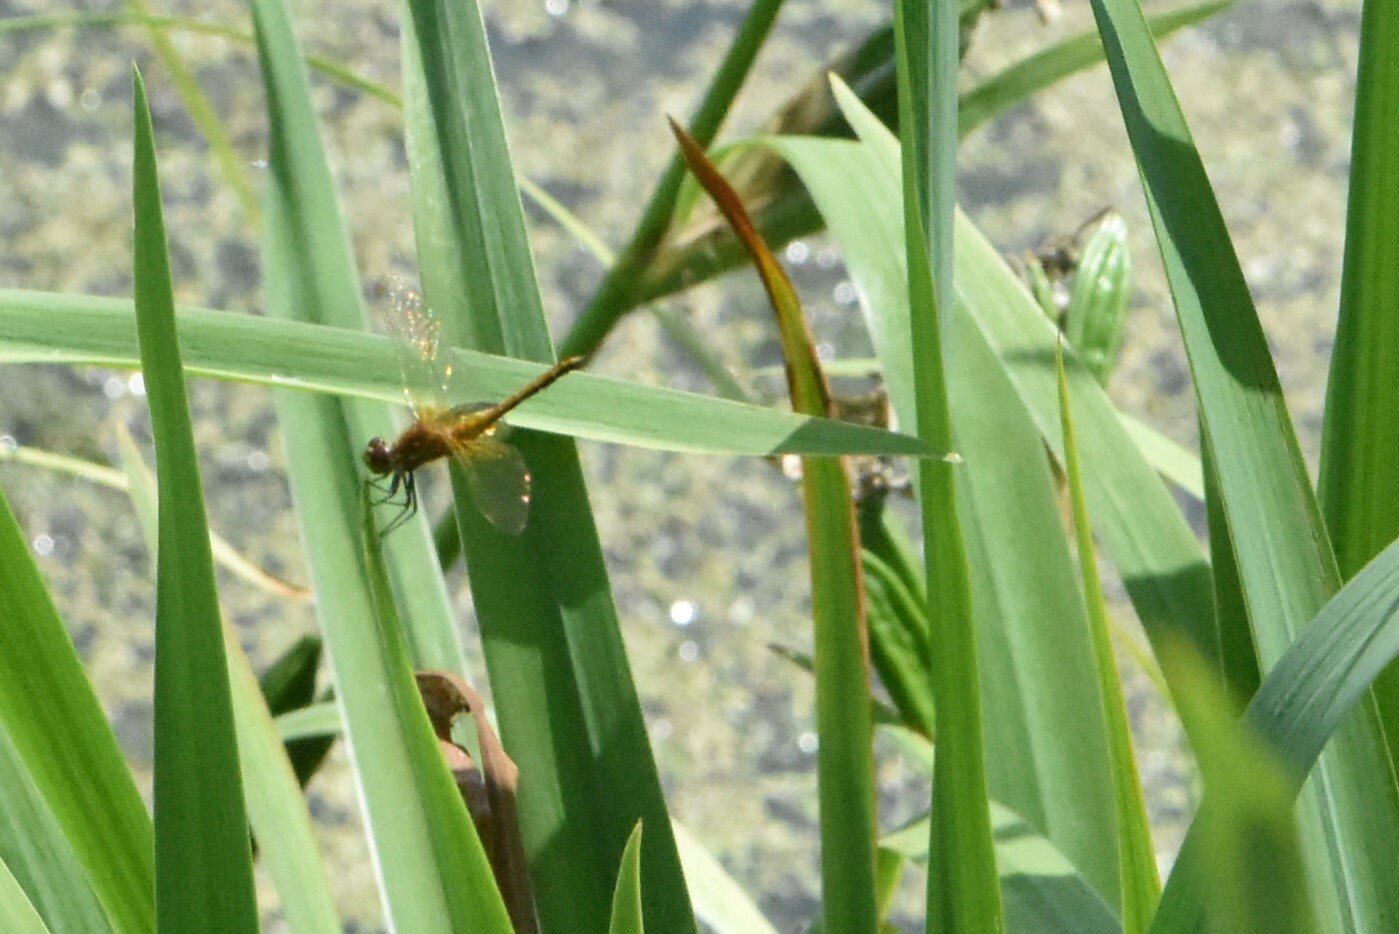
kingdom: Animalia
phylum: Arthropoda
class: Insecta
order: Odonata
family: Libellulidae
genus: Sympetrum
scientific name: Sympetrum flaveolum
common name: Yellow-winged darter
